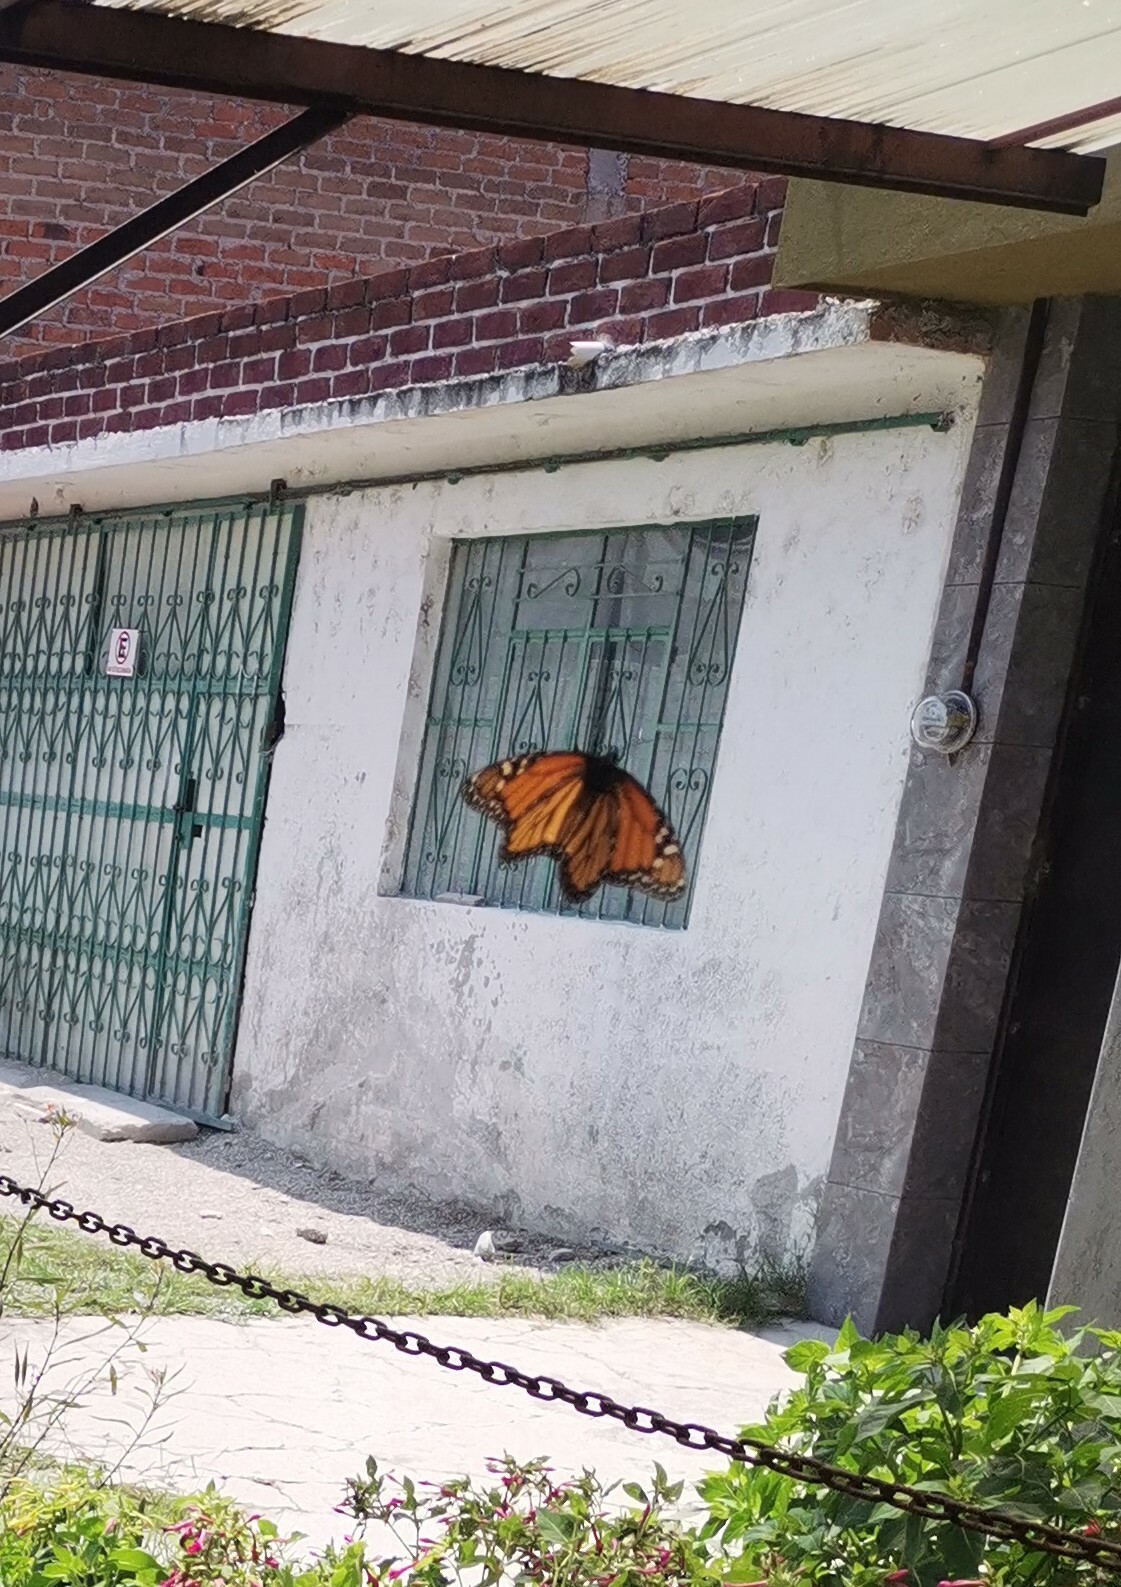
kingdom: Animalia
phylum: Arthropoda
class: Insecta
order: Lepidoptera
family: Nymphalidae
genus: Danaus
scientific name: Danaus plexippus
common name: Monarch
